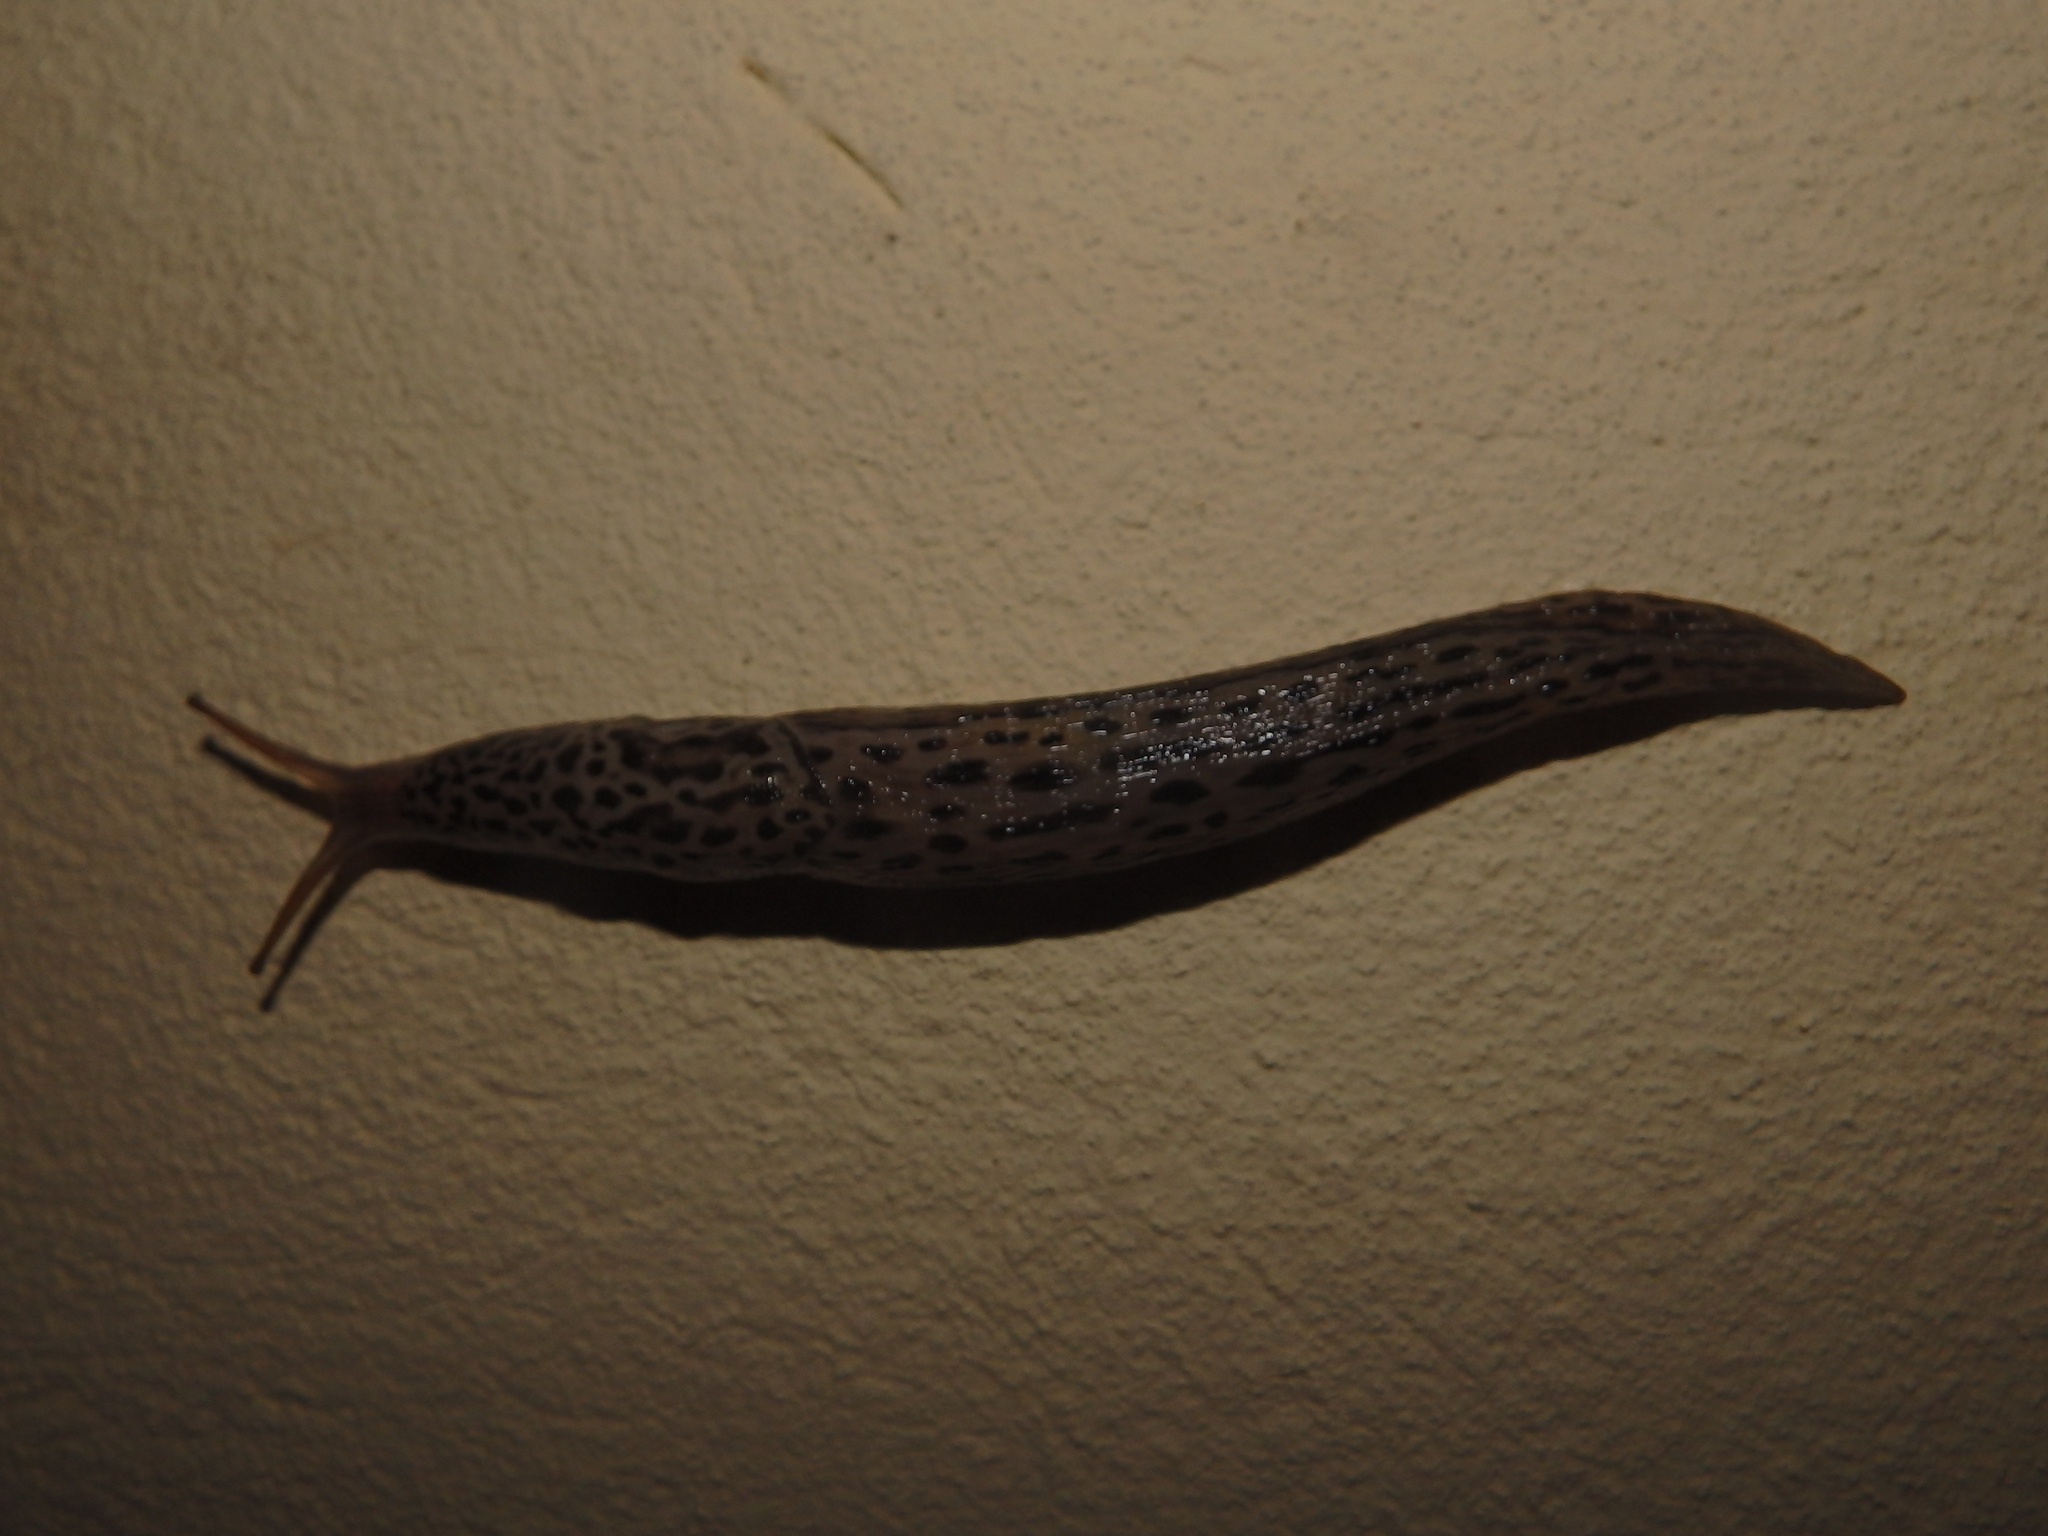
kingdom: Animalia
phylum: Mollusca
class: Gastropoda
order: Stylommatophora
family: Limacidae
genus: Limax
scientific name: Limax maximus
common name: Great grey slug
